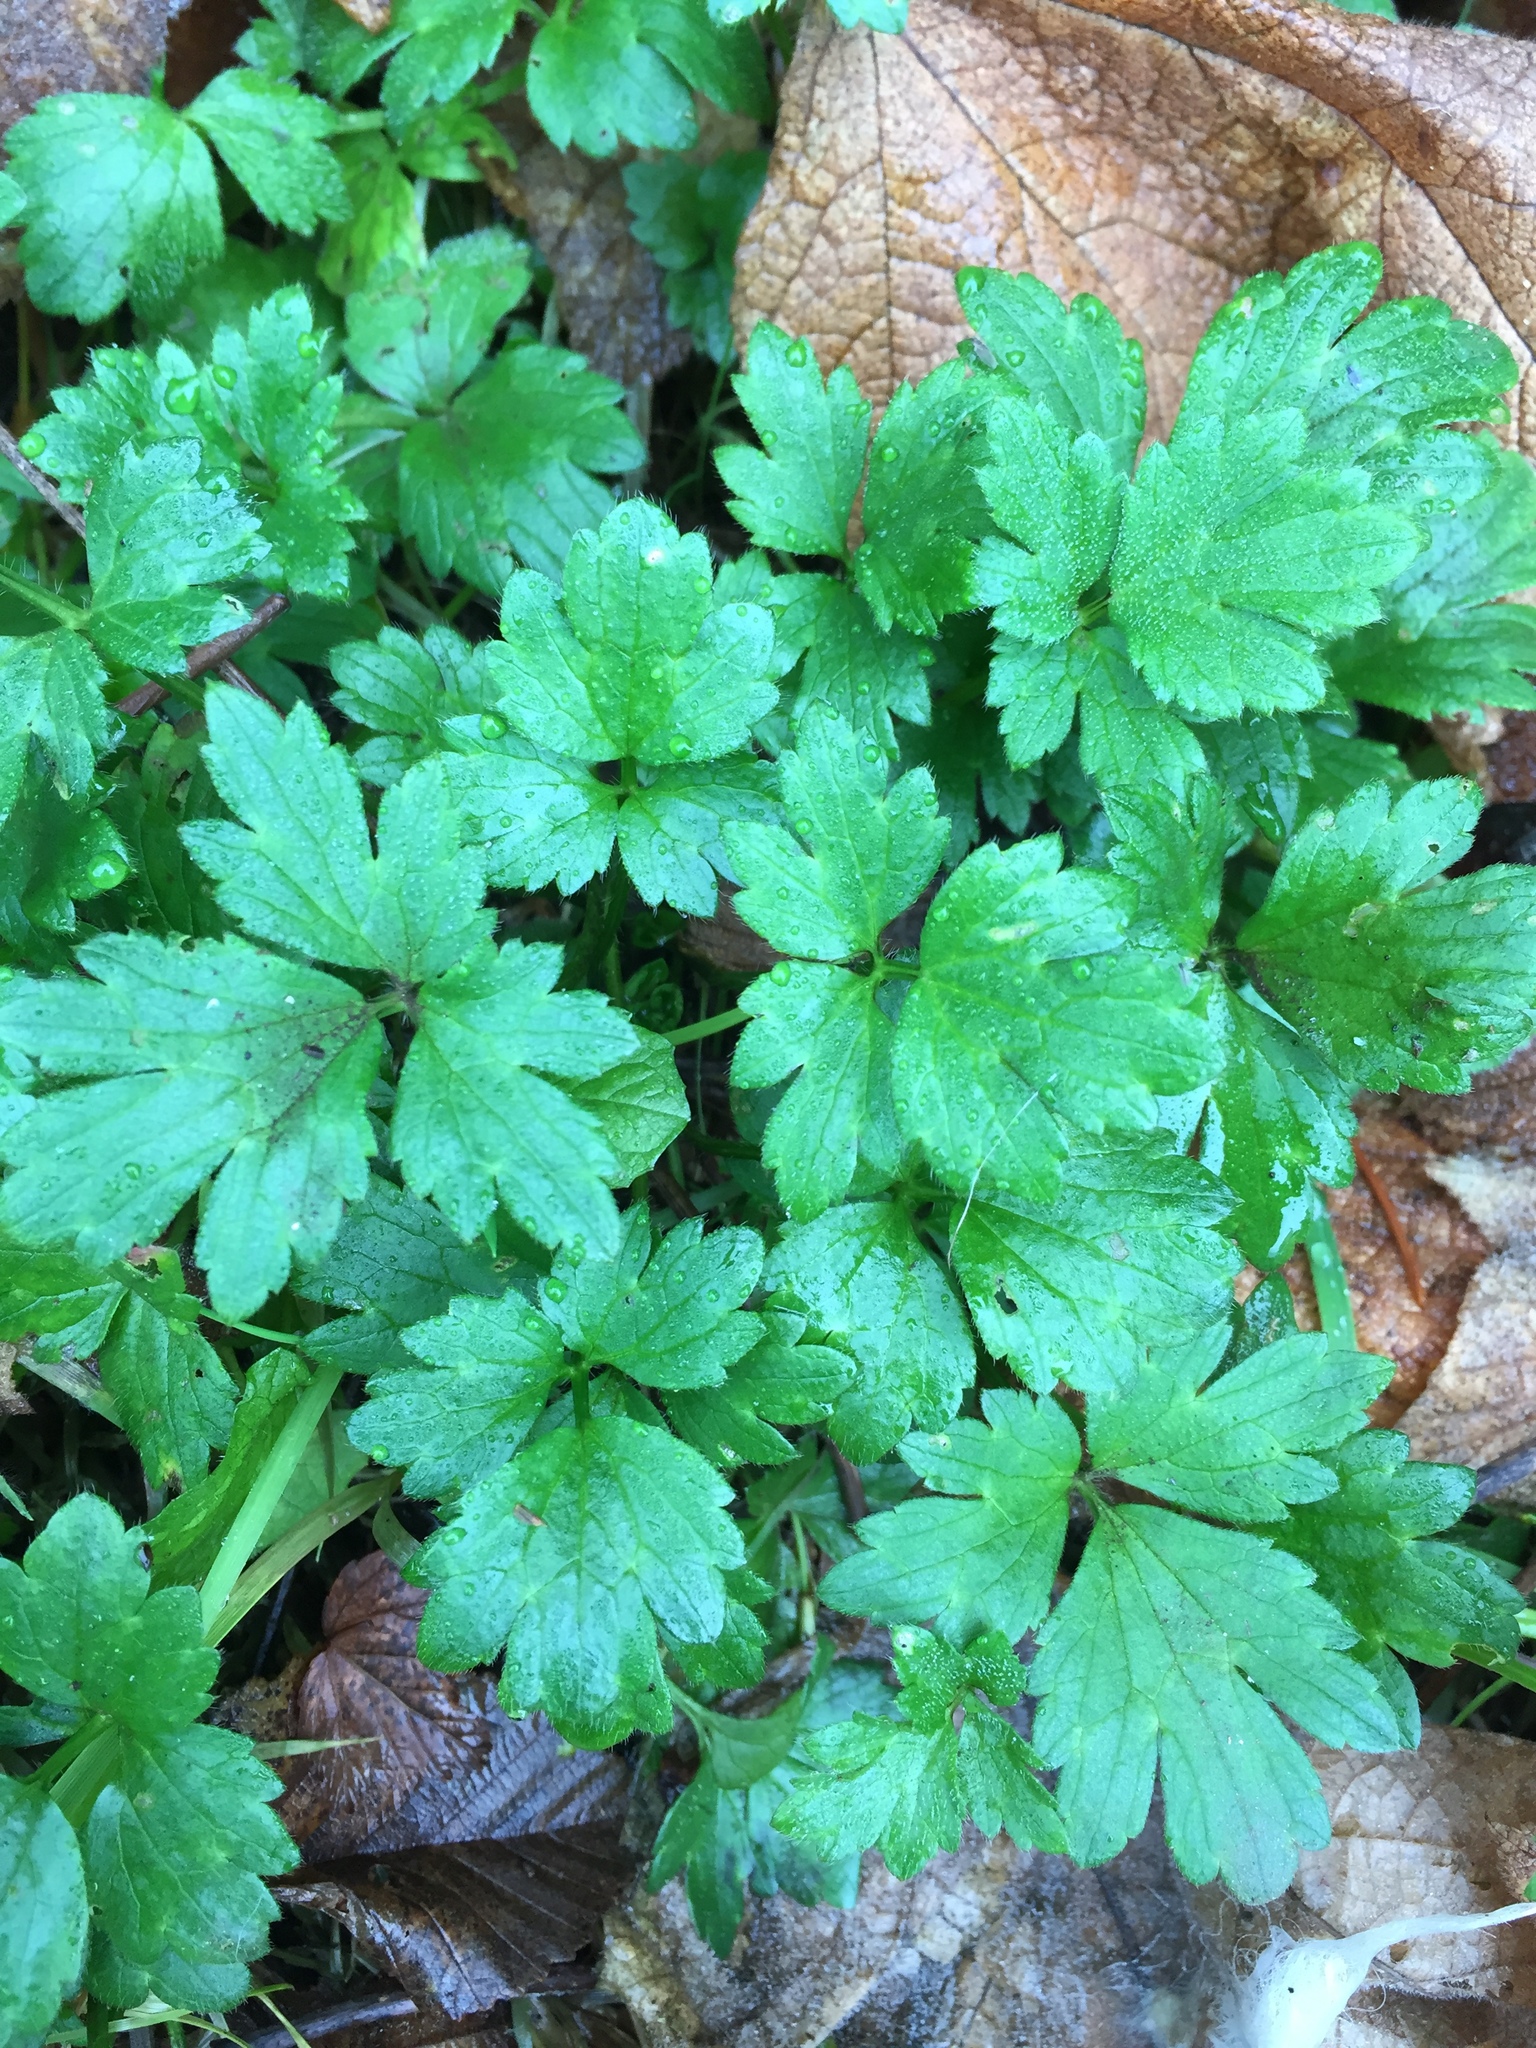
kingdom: Plantae
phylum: Tracheophyta
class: Magnoliopsida
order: Ranunculales
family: Ranunculaceae
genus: Ranunculus
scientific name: Ranunculus repens
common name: Creeping buttercup
